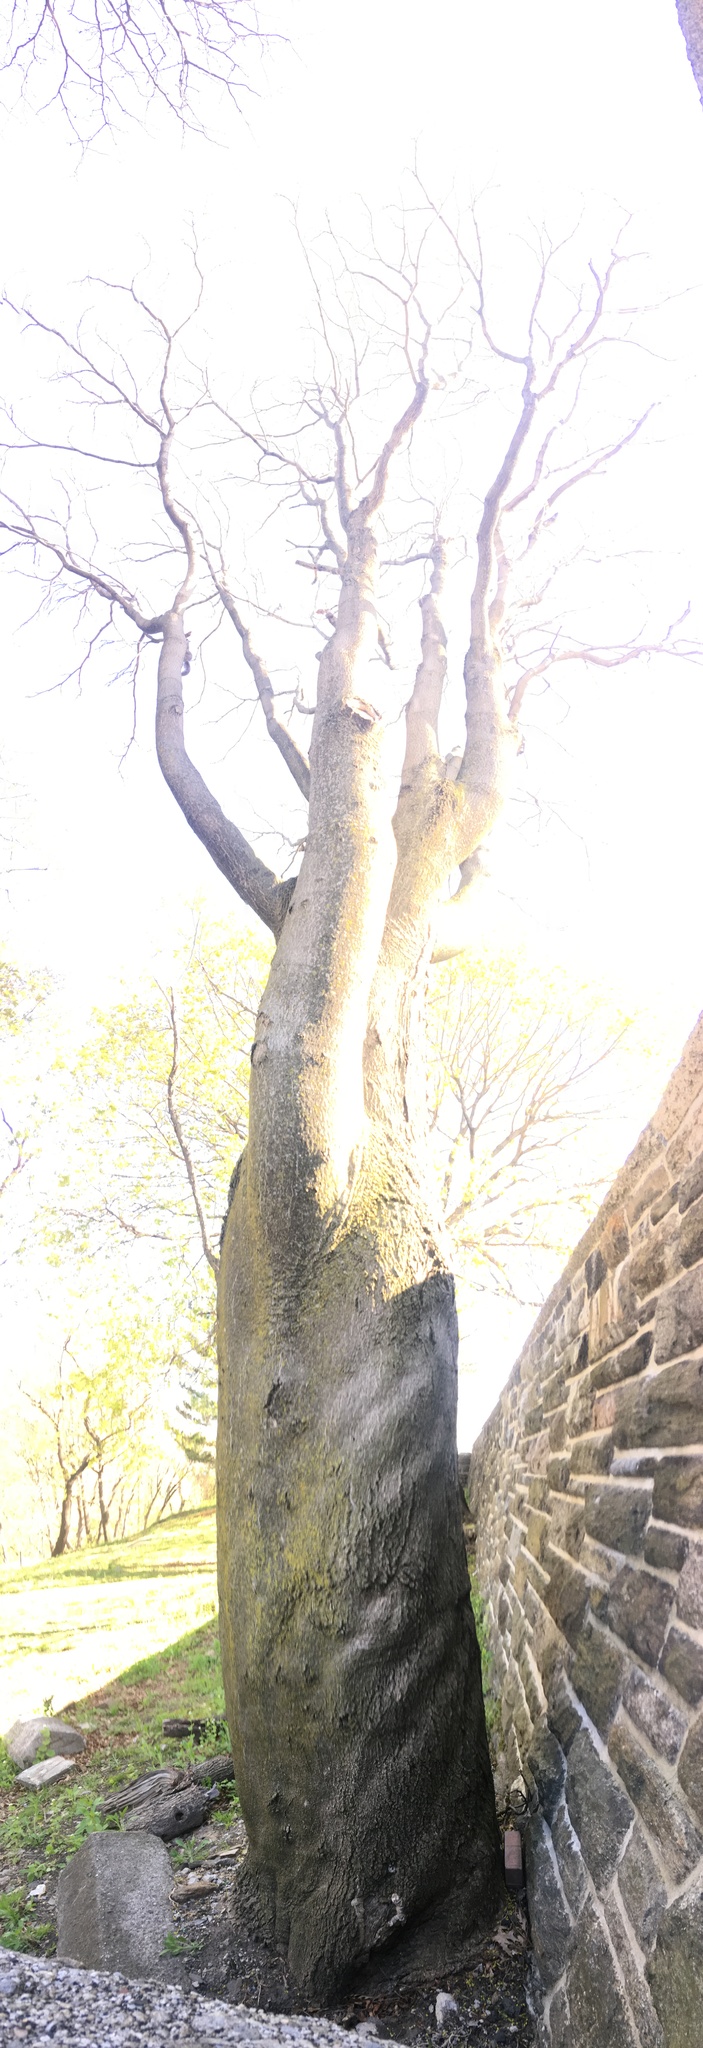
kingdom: Plantae
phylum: Tracheophyta
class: Magnoliopsida
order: Sapindales
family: Simaroubaceae
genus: Ailanthus
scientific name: Ailanthus altissima
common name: Tree-of-heaven
